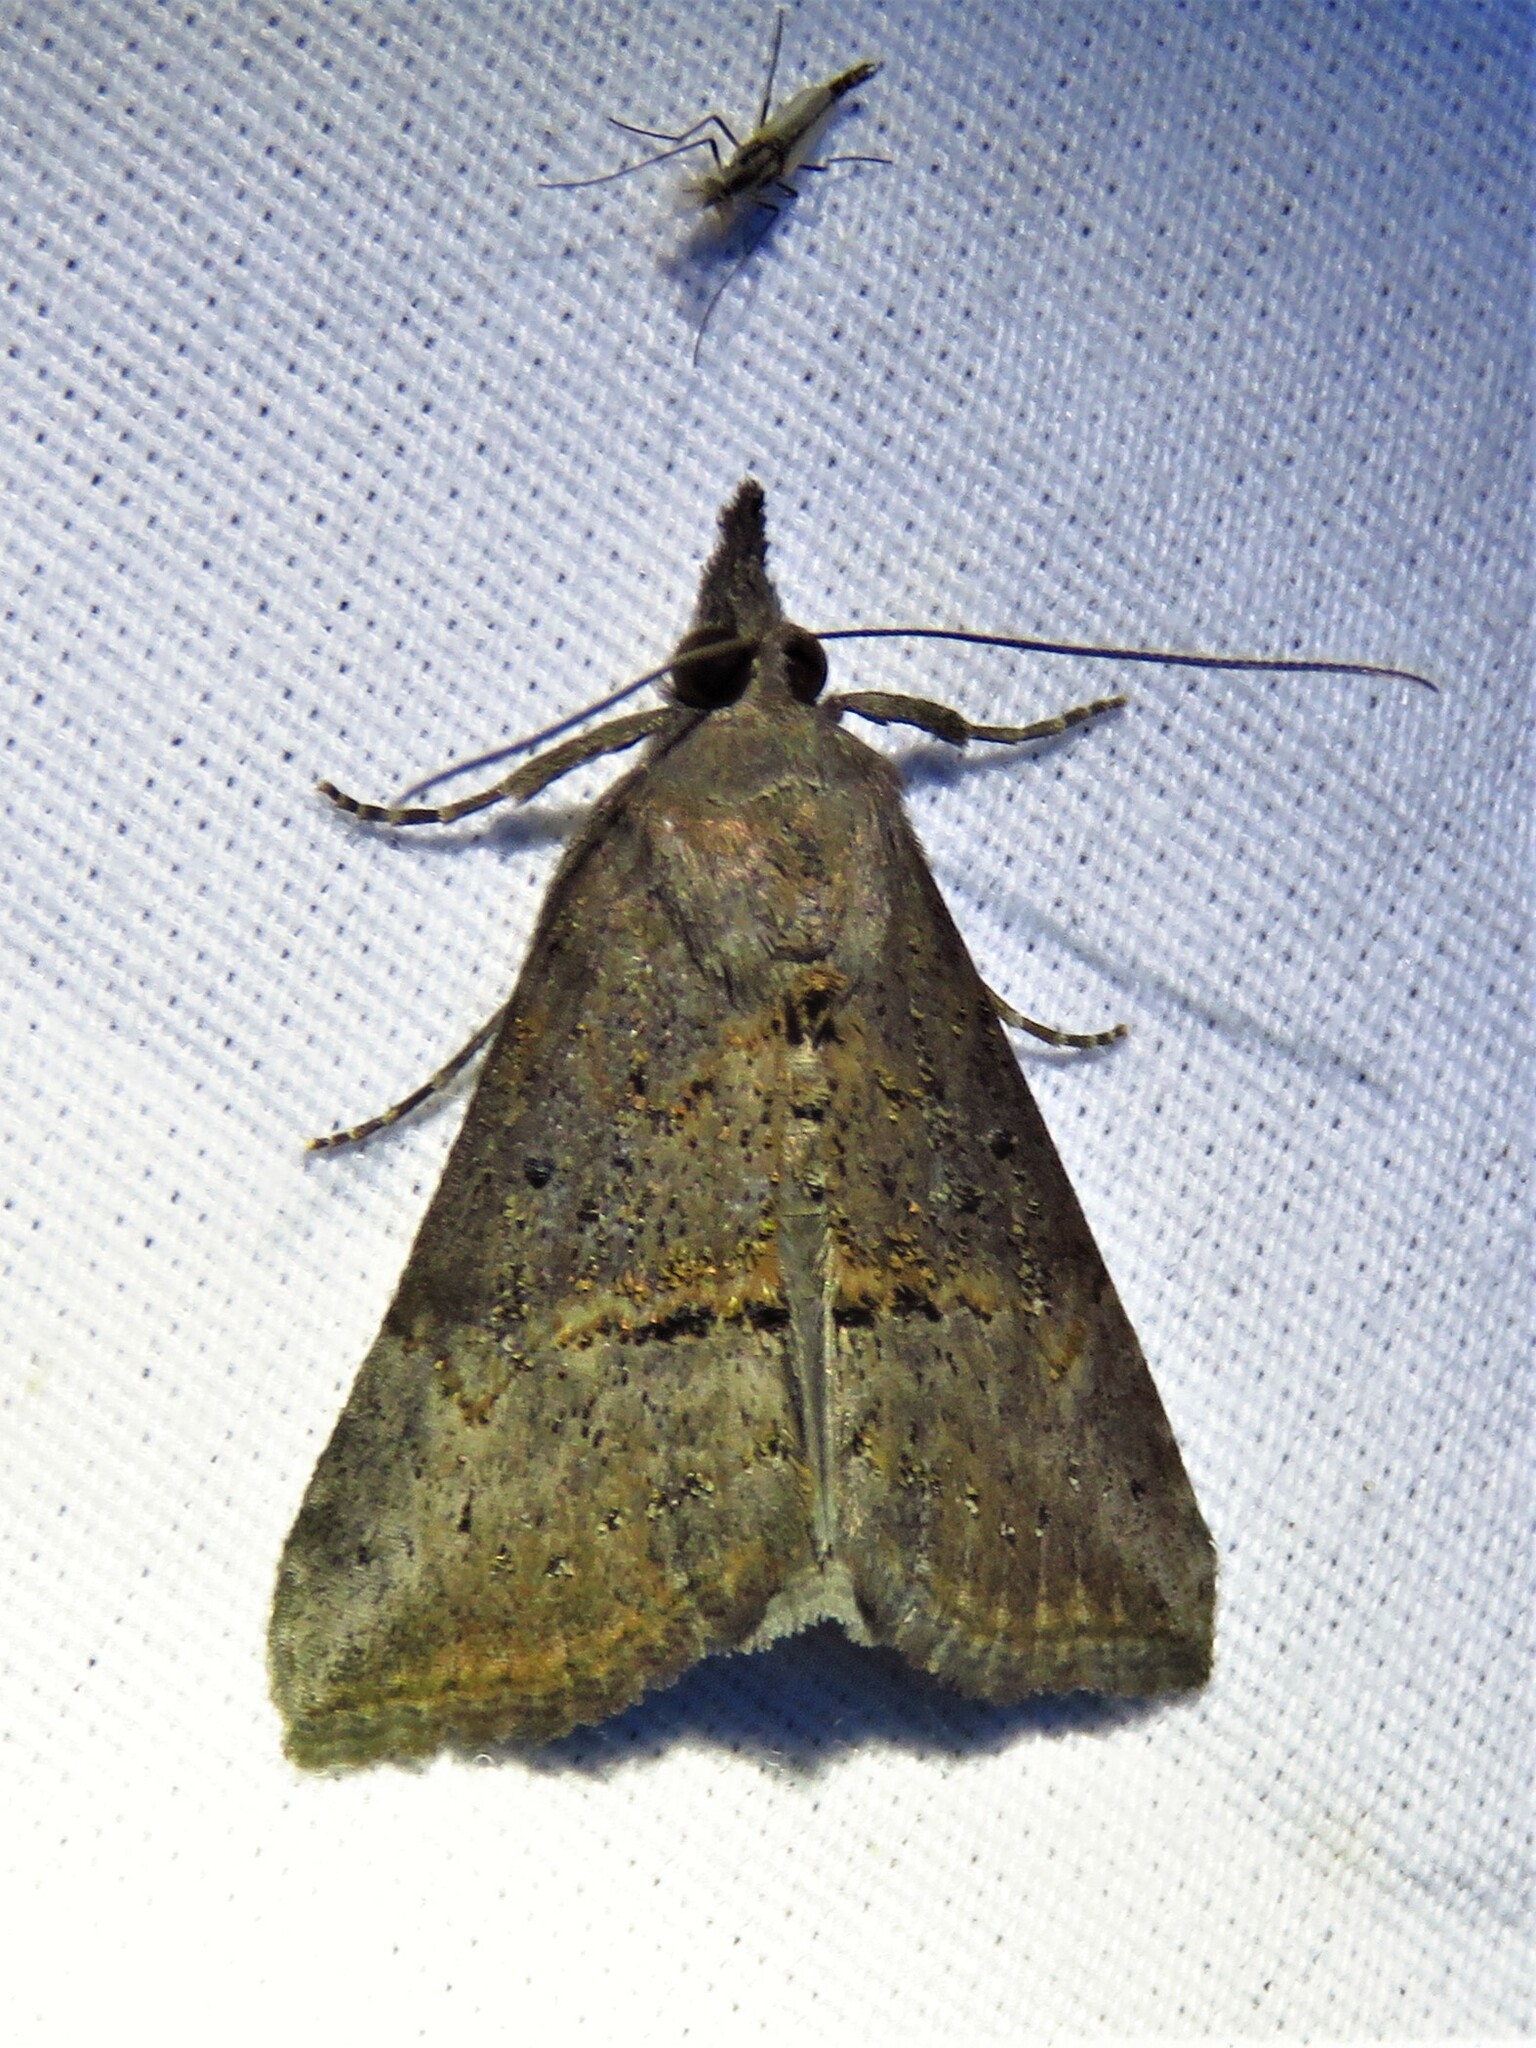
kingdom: Animalia
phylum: Arthropoda
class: Insecta
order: Lepidoptera
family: Erebidae
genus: Hypena
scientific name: Hypena scabra
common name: Green cloverworm
